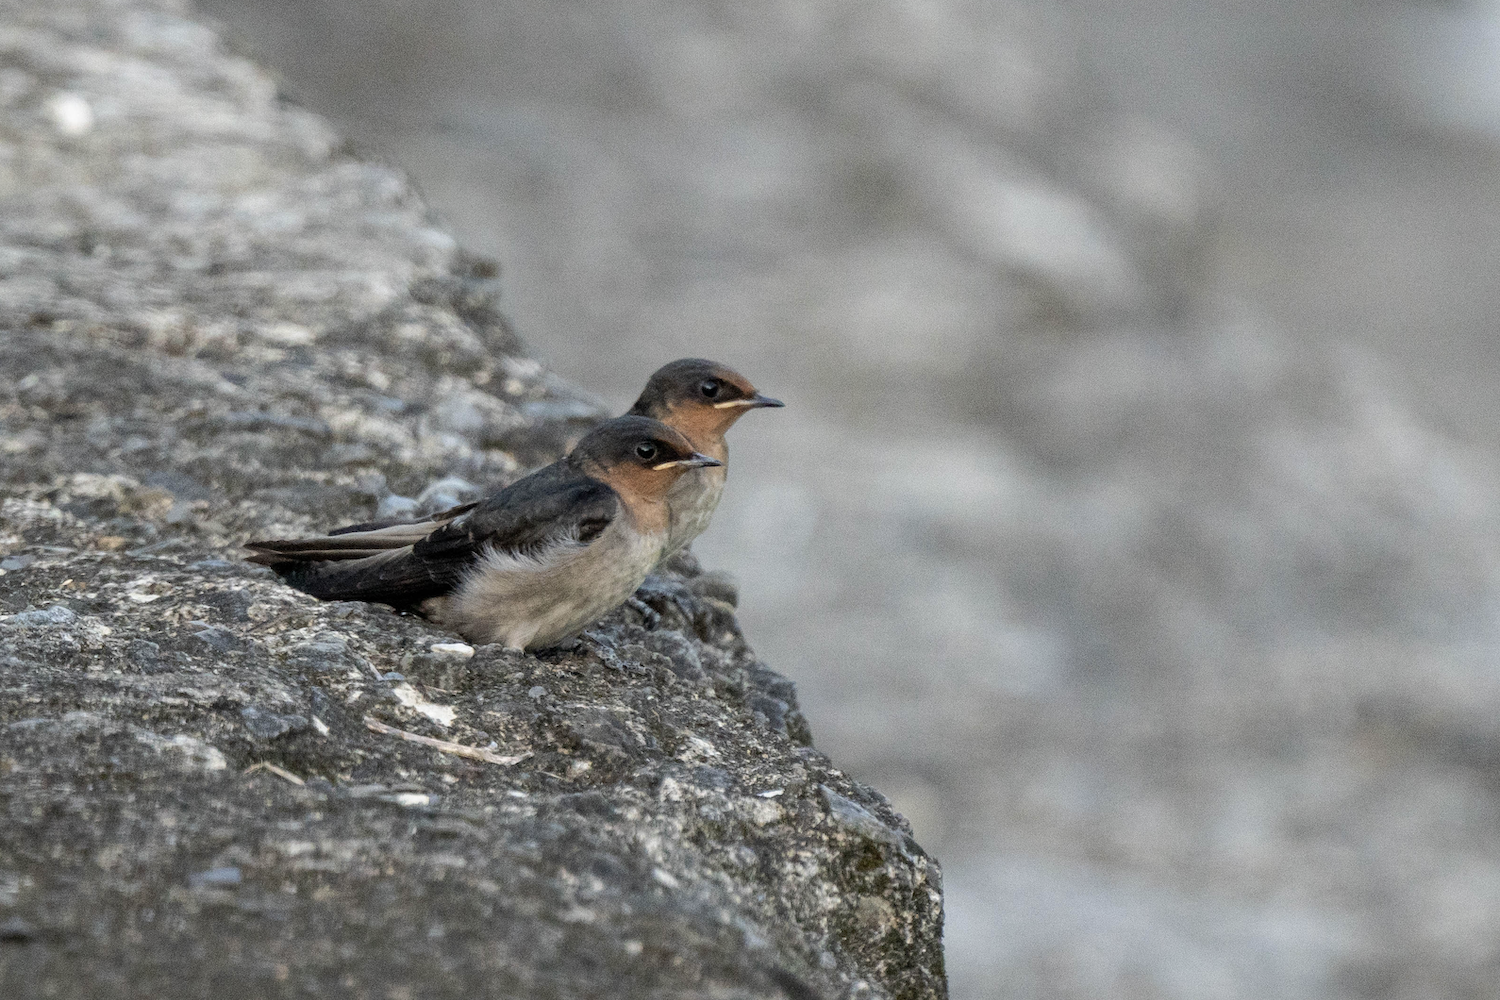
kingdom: Animalia
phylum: Chordata
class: Aves
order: Passeriformes
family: Hirundinidae
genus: Hirundo
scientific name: Hirundo tahitica
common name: Pacific swallow
